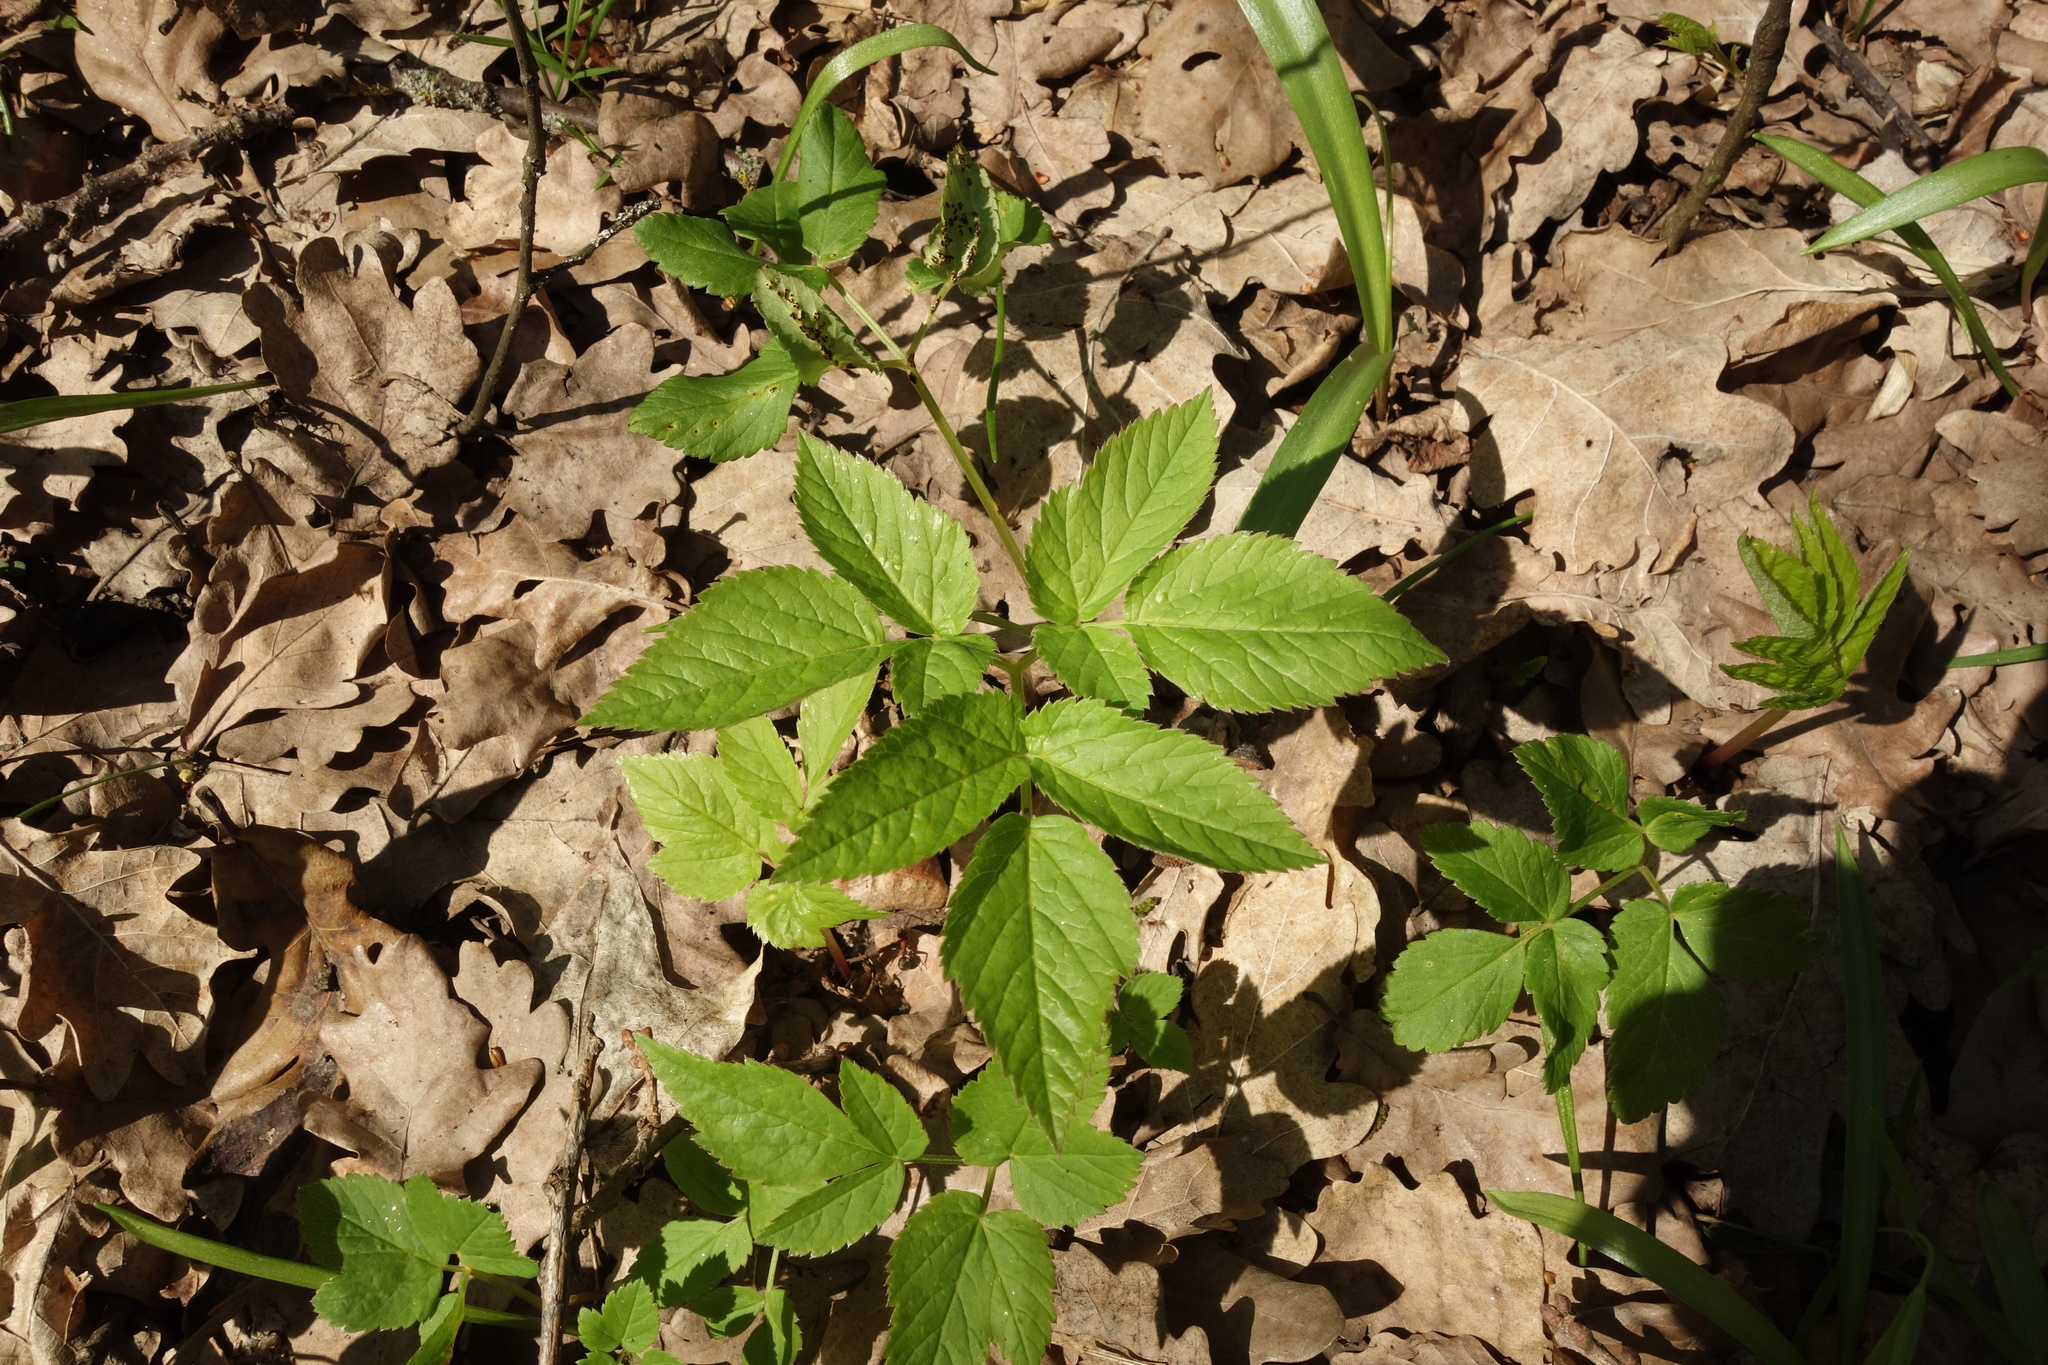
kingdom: Plantae
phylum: Tracheophyta
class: Magnoliopsida
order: Apiales
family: Apiaceae
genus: Aegopodium
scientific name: Aegopodium podagraria
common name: Ground-elder
